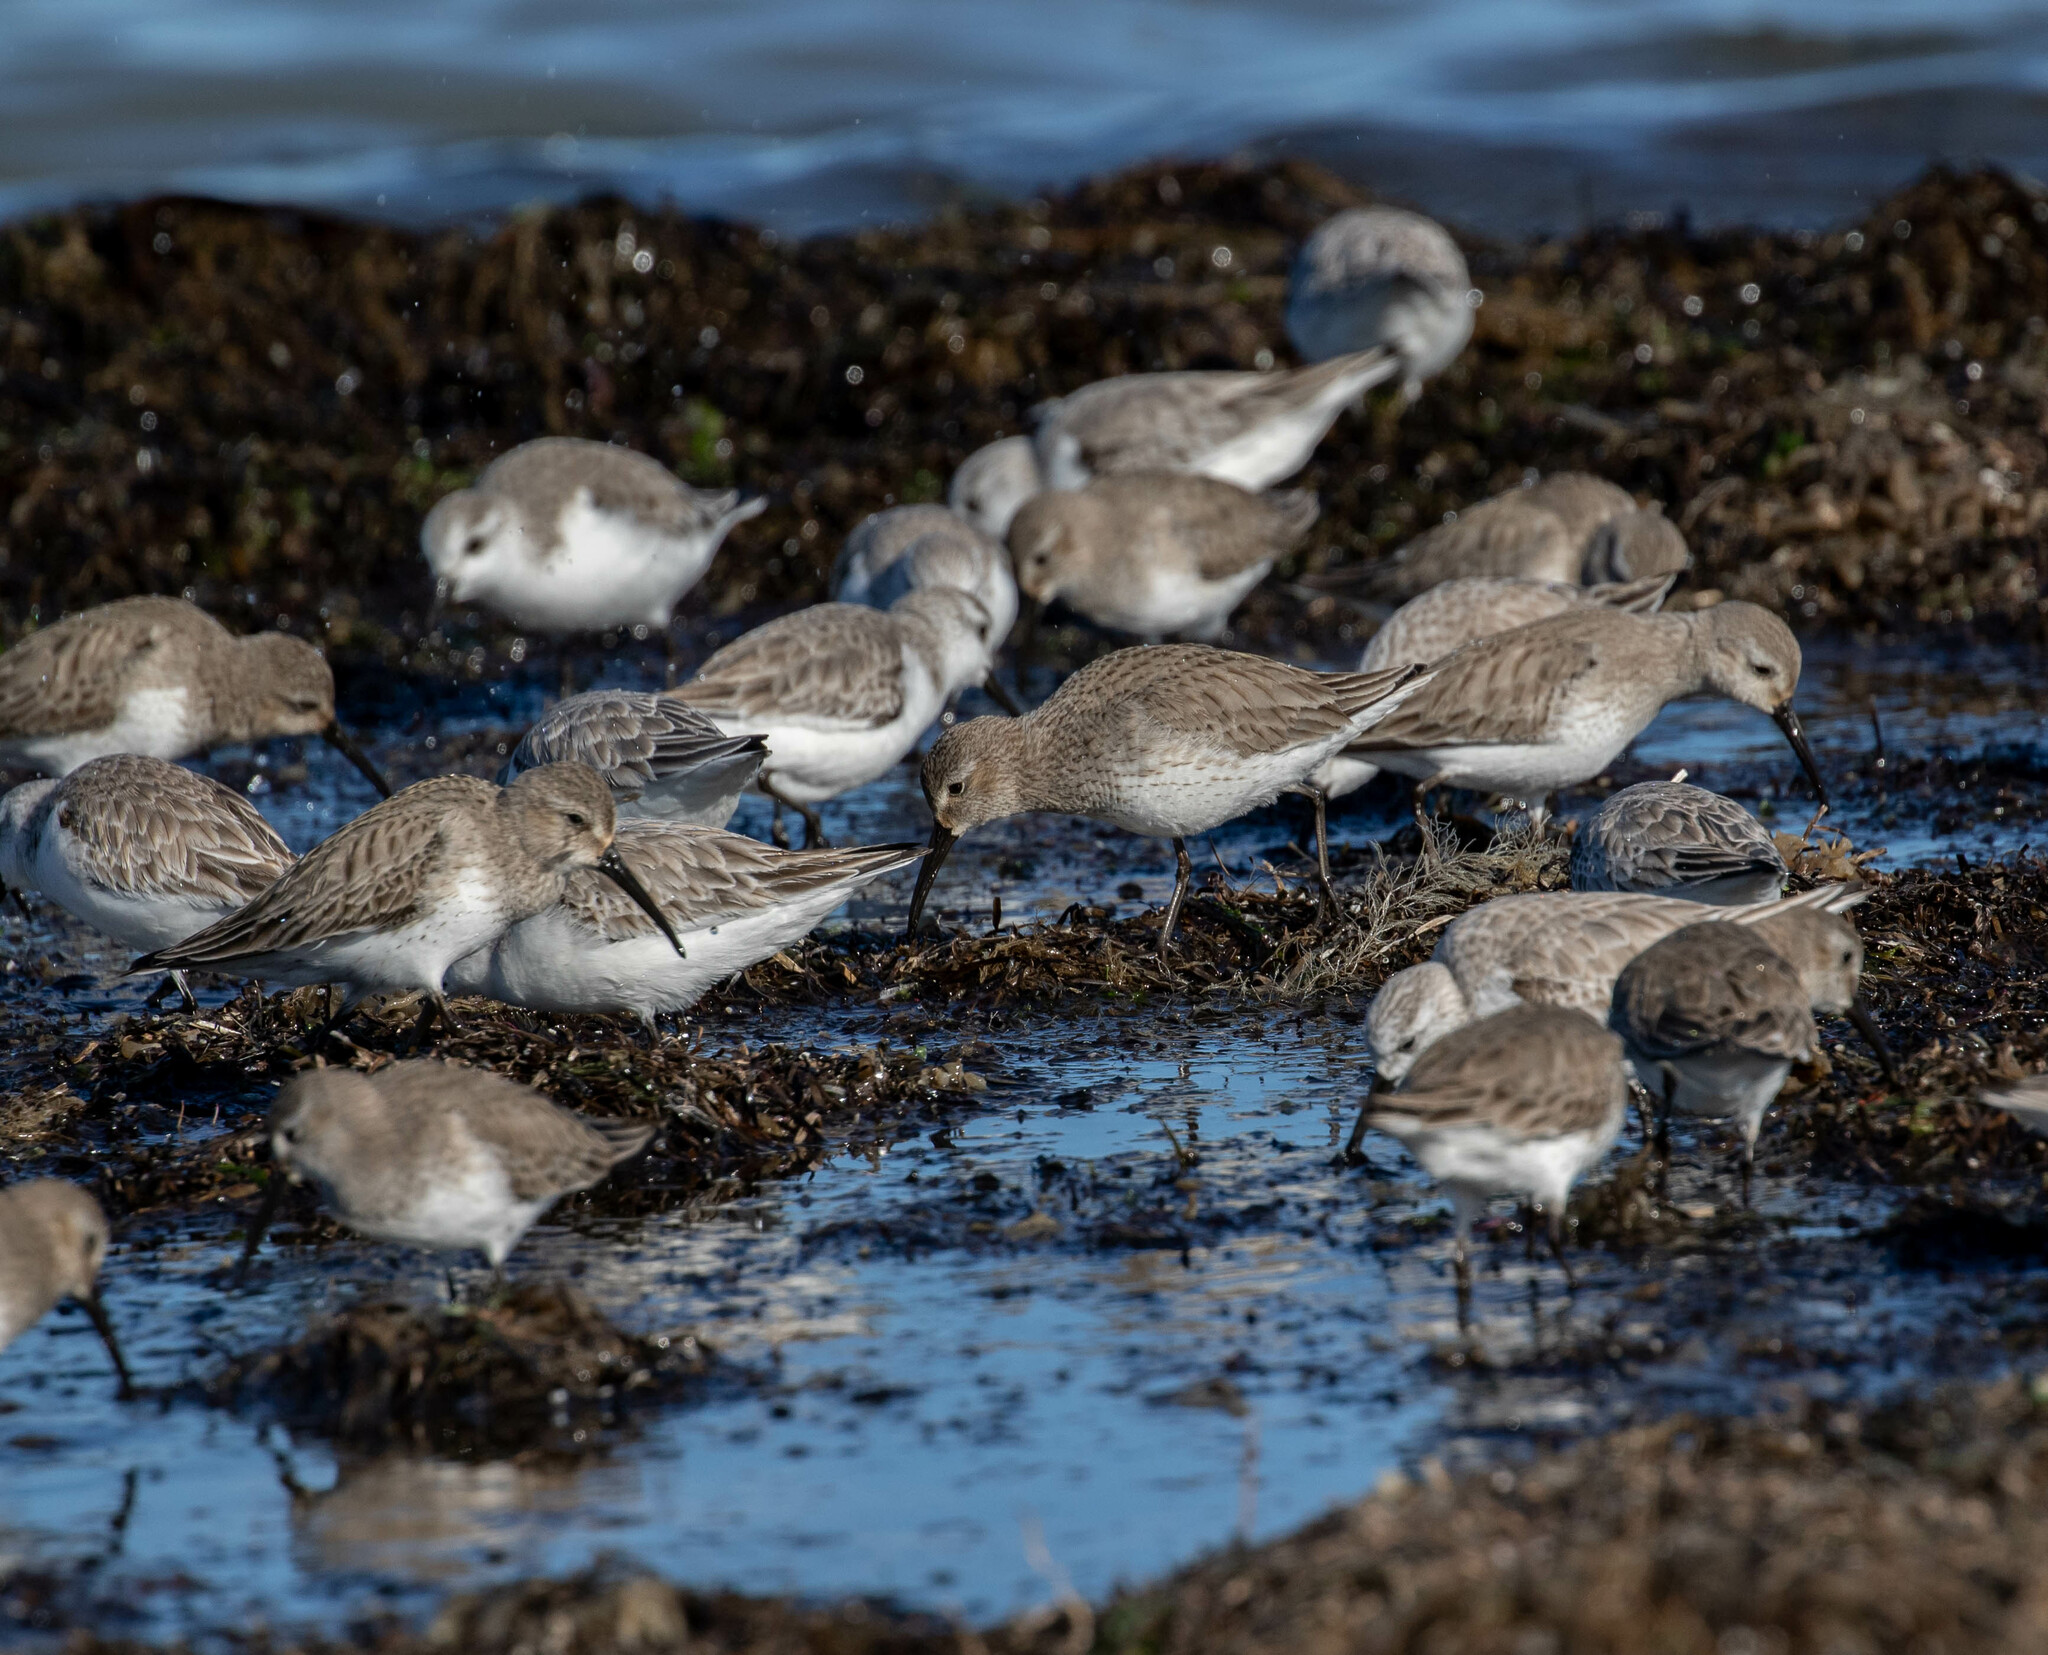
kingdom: Animalia
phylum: Chordata
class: Aves
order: Charadriiformes
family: Scolopacidae
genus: Calidris
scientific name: Calidris alpina
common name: Dunlin
